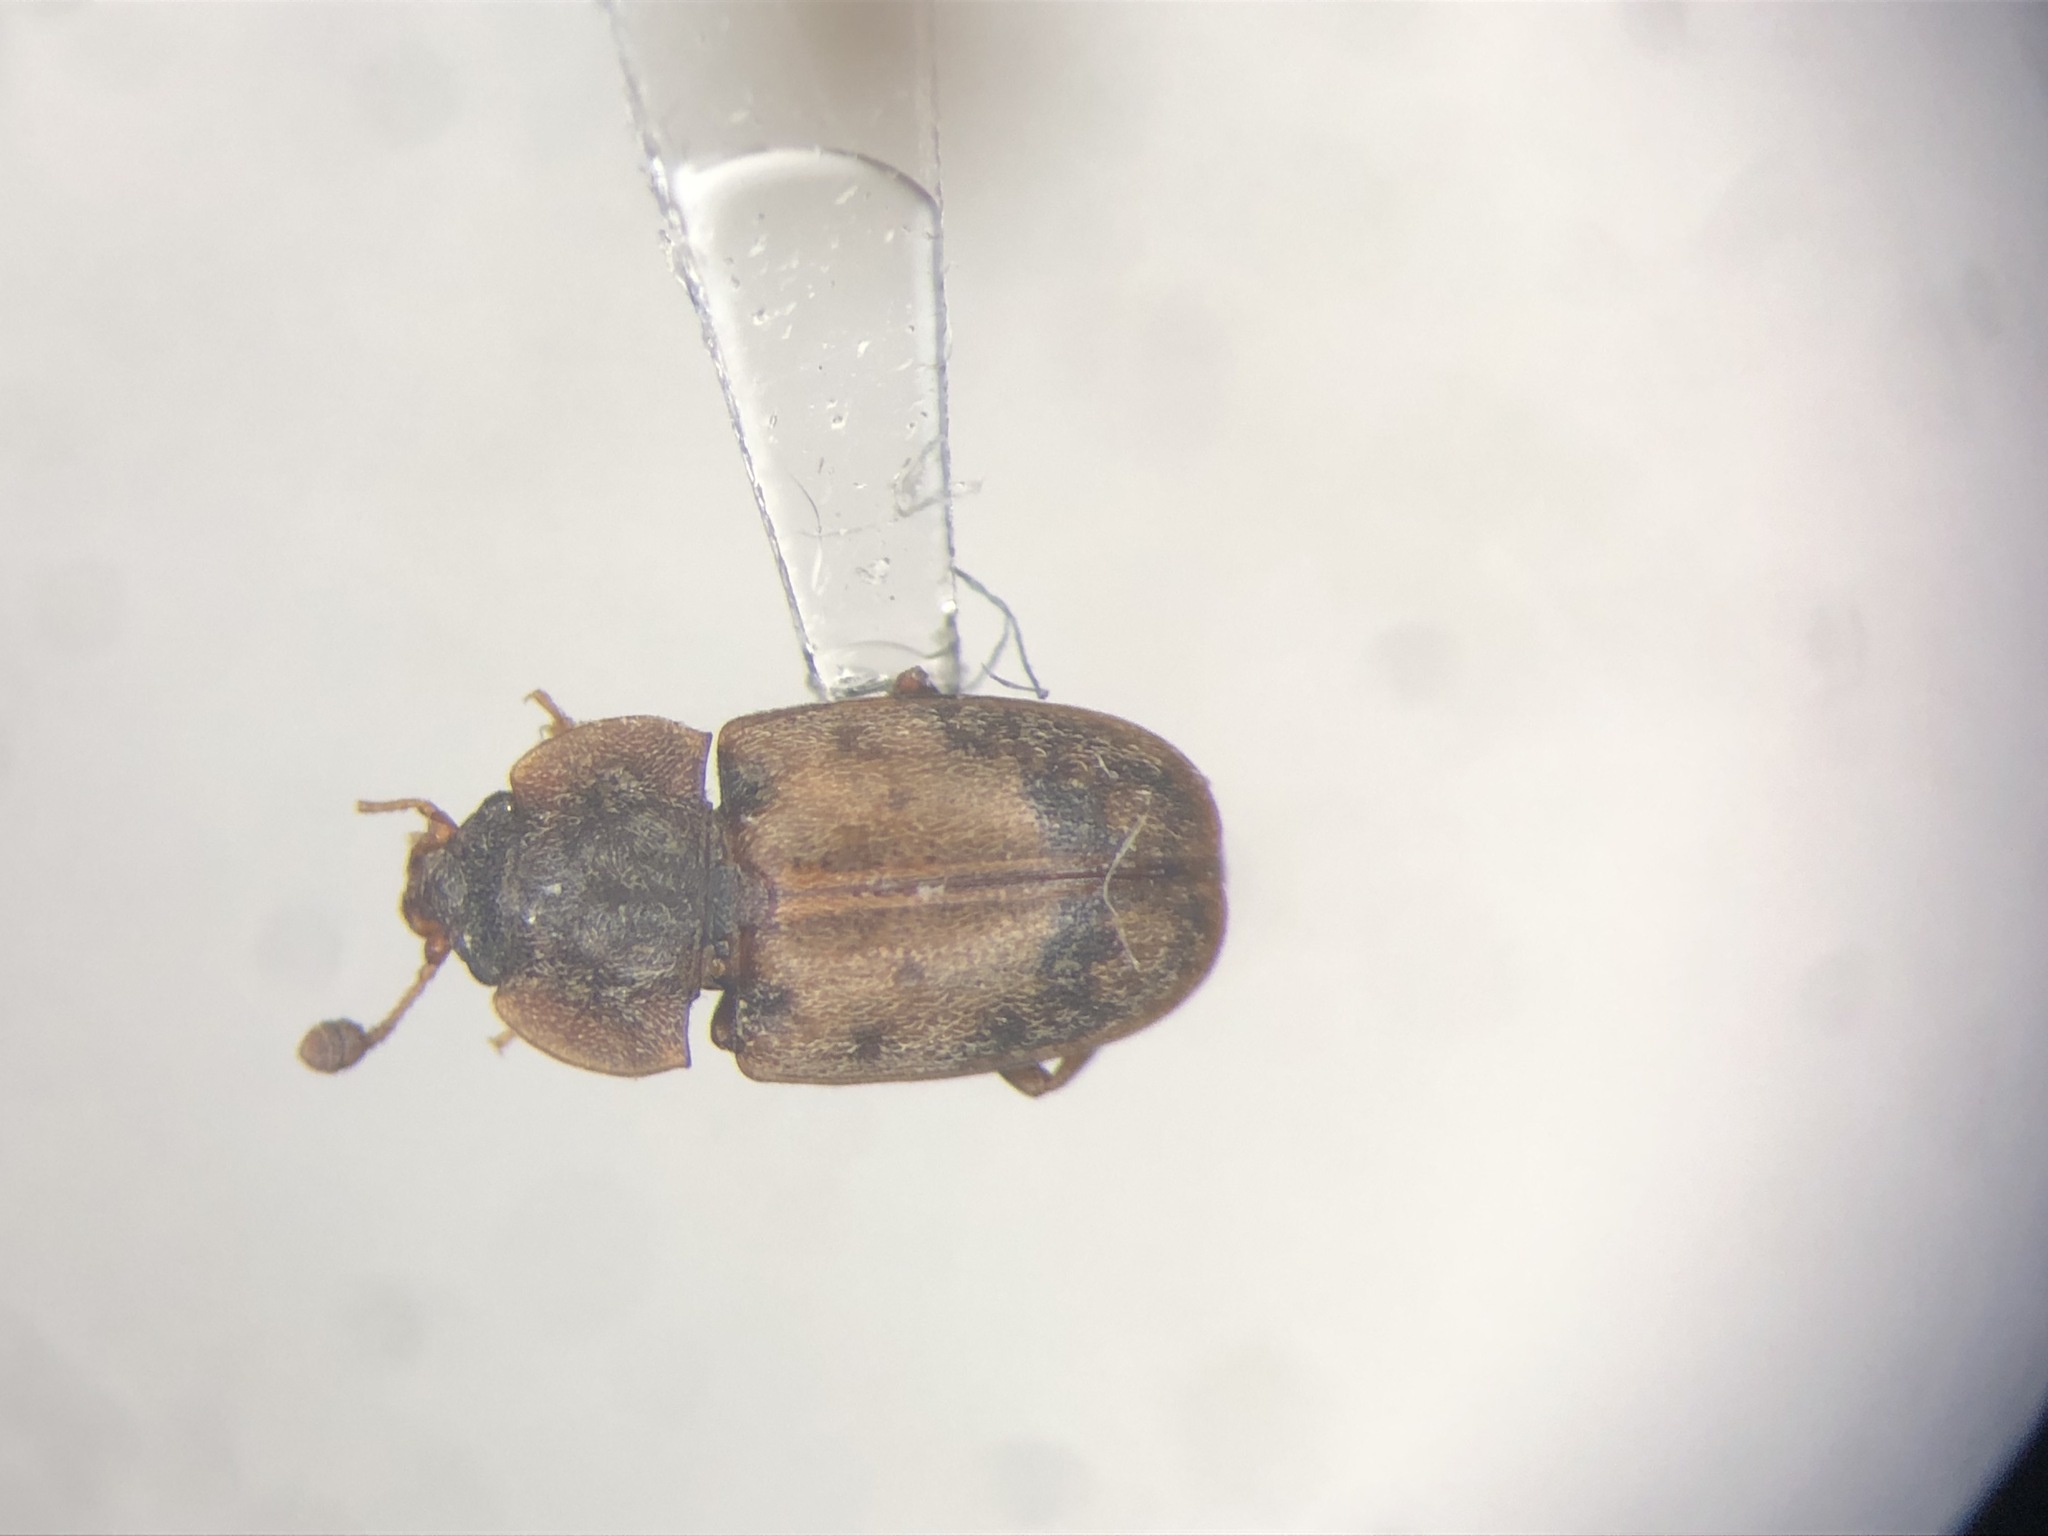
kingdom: Animalia
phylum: Arthropoda
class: Insecta
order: Coleoptera
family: Nitidulidae
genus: Omosita
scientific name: Omosita discoidea
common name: Sap beetle
